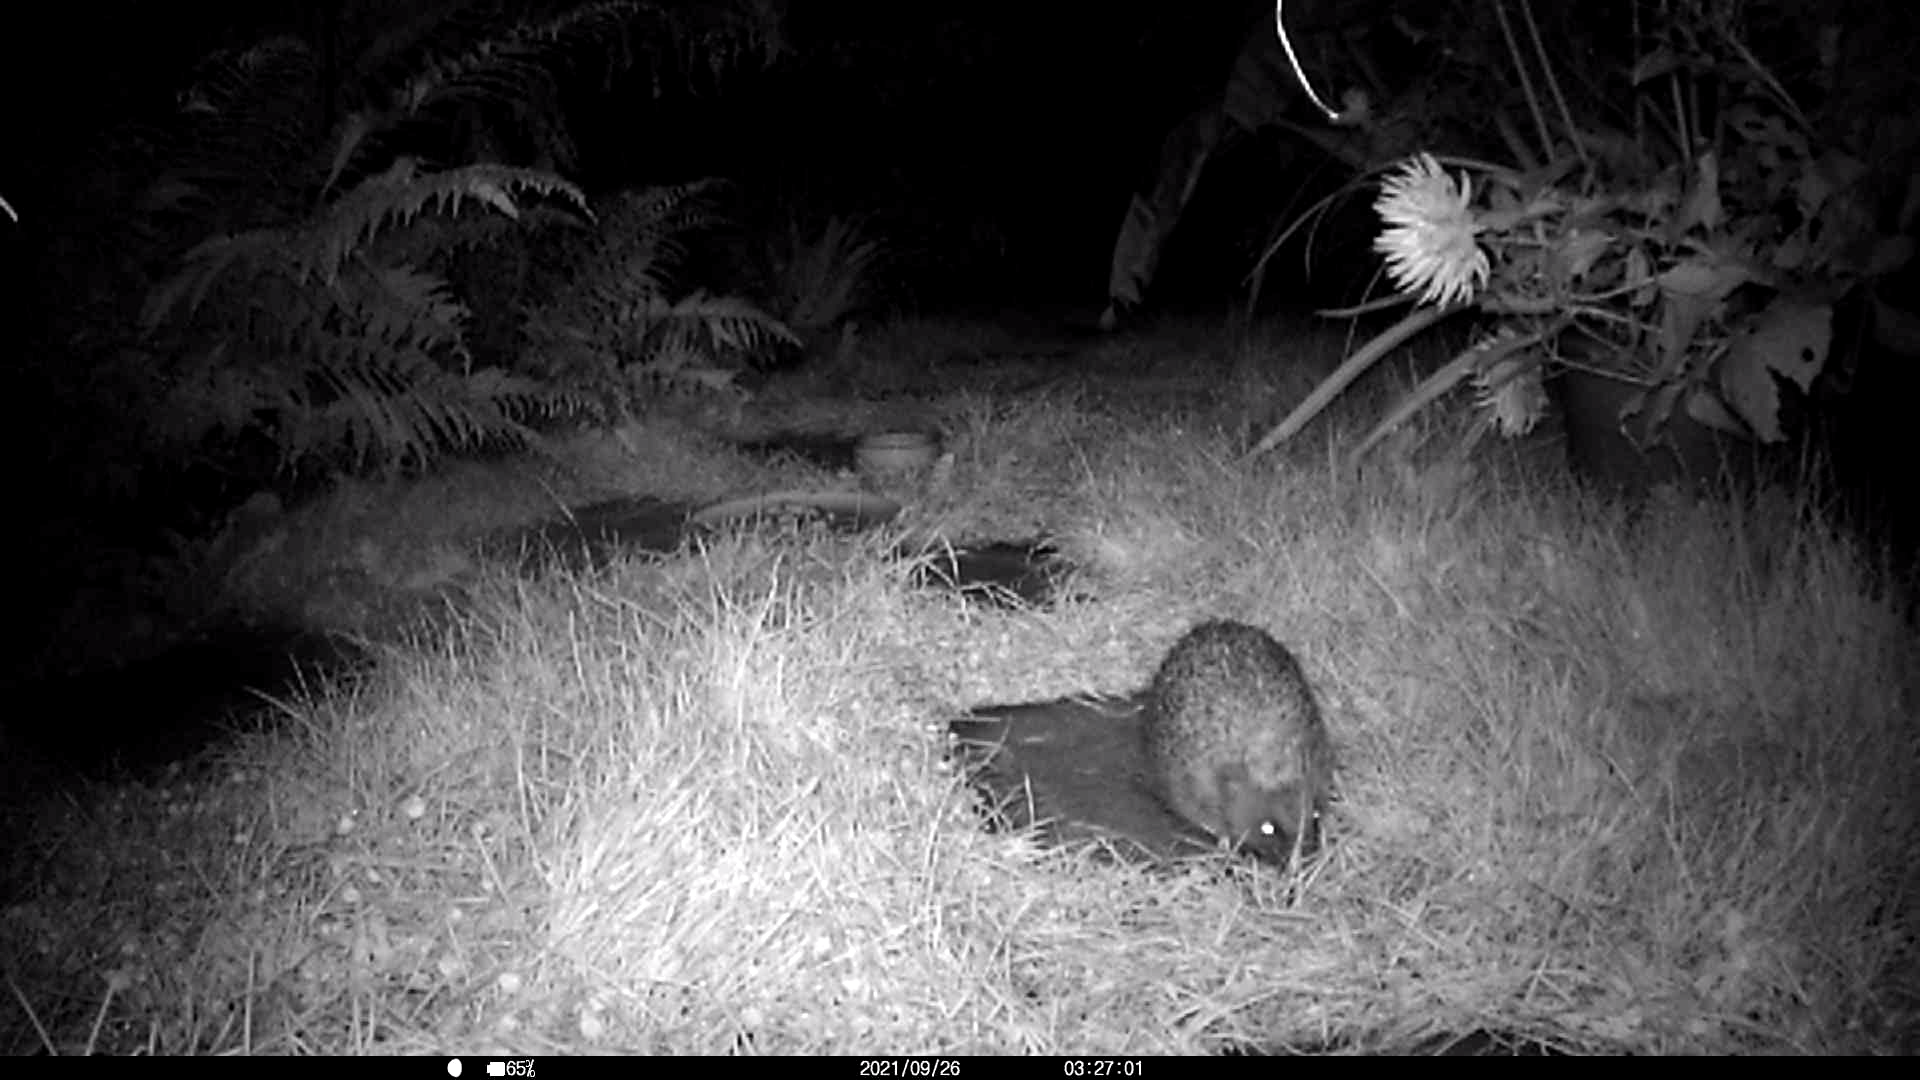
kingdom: Animalia
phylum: Chordata
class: Mammalia
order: Erinaceomorpha
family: Erinaceidae
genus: Erinaceus
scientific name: Erinaceus europaeus
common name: West european hedgehog
